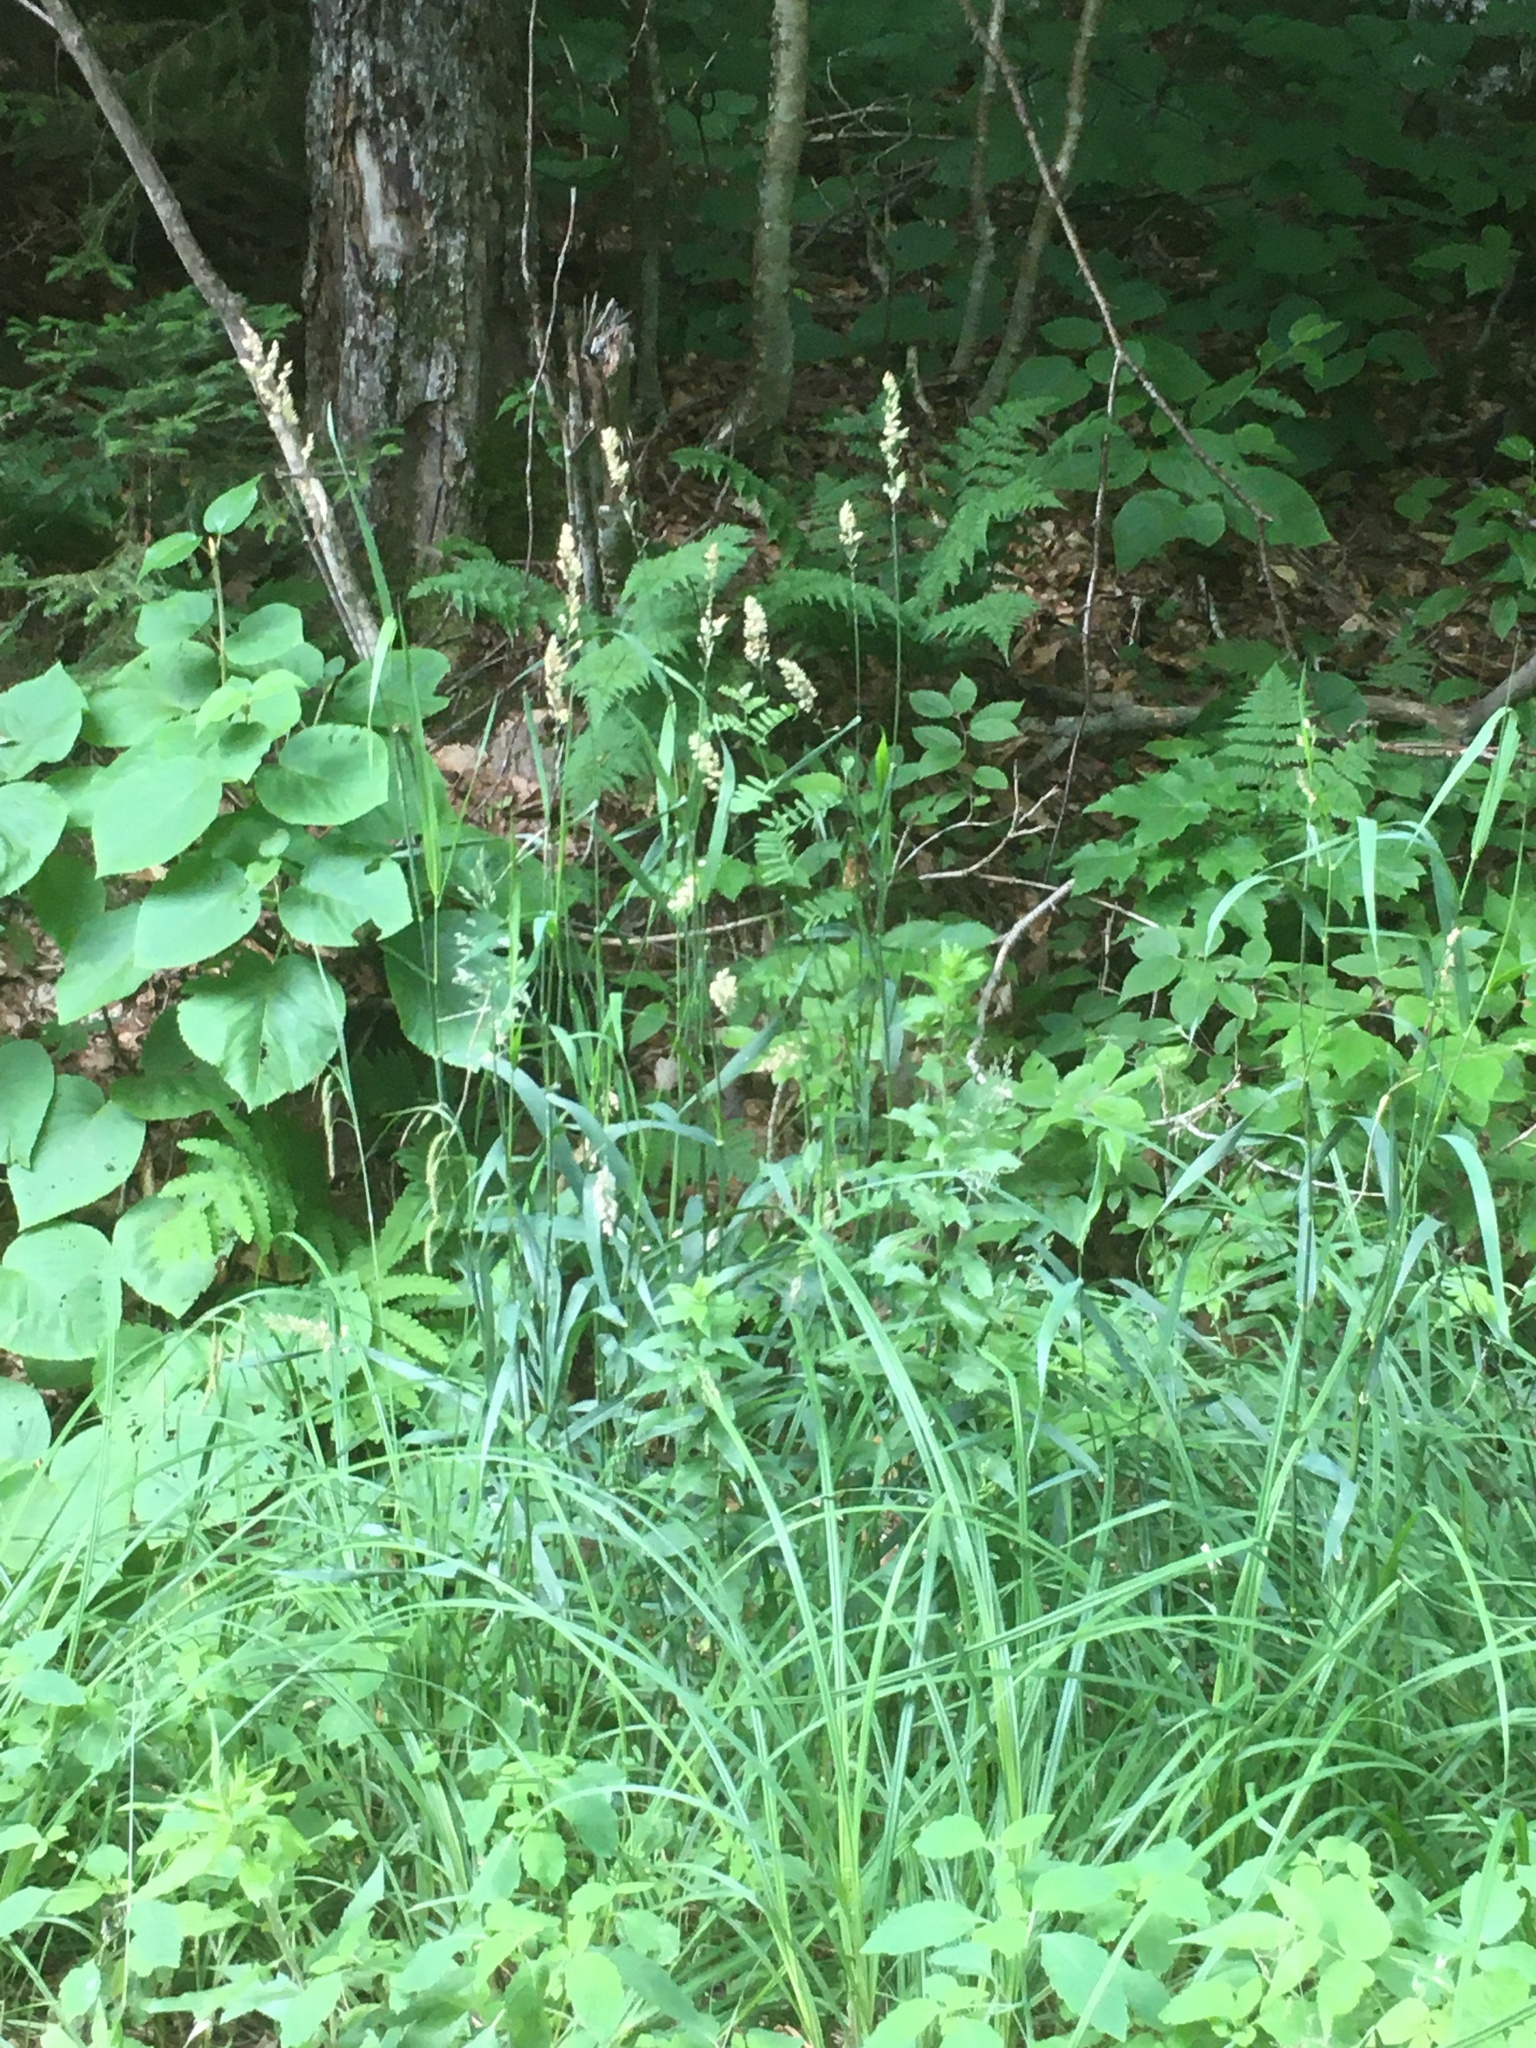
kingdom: Plantae
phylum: Tracheophyta
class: Liliopsida
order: Poales
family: Poaceae
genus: Phalaris
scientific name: Phalaris arundinacea
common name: Reed canary-grass
